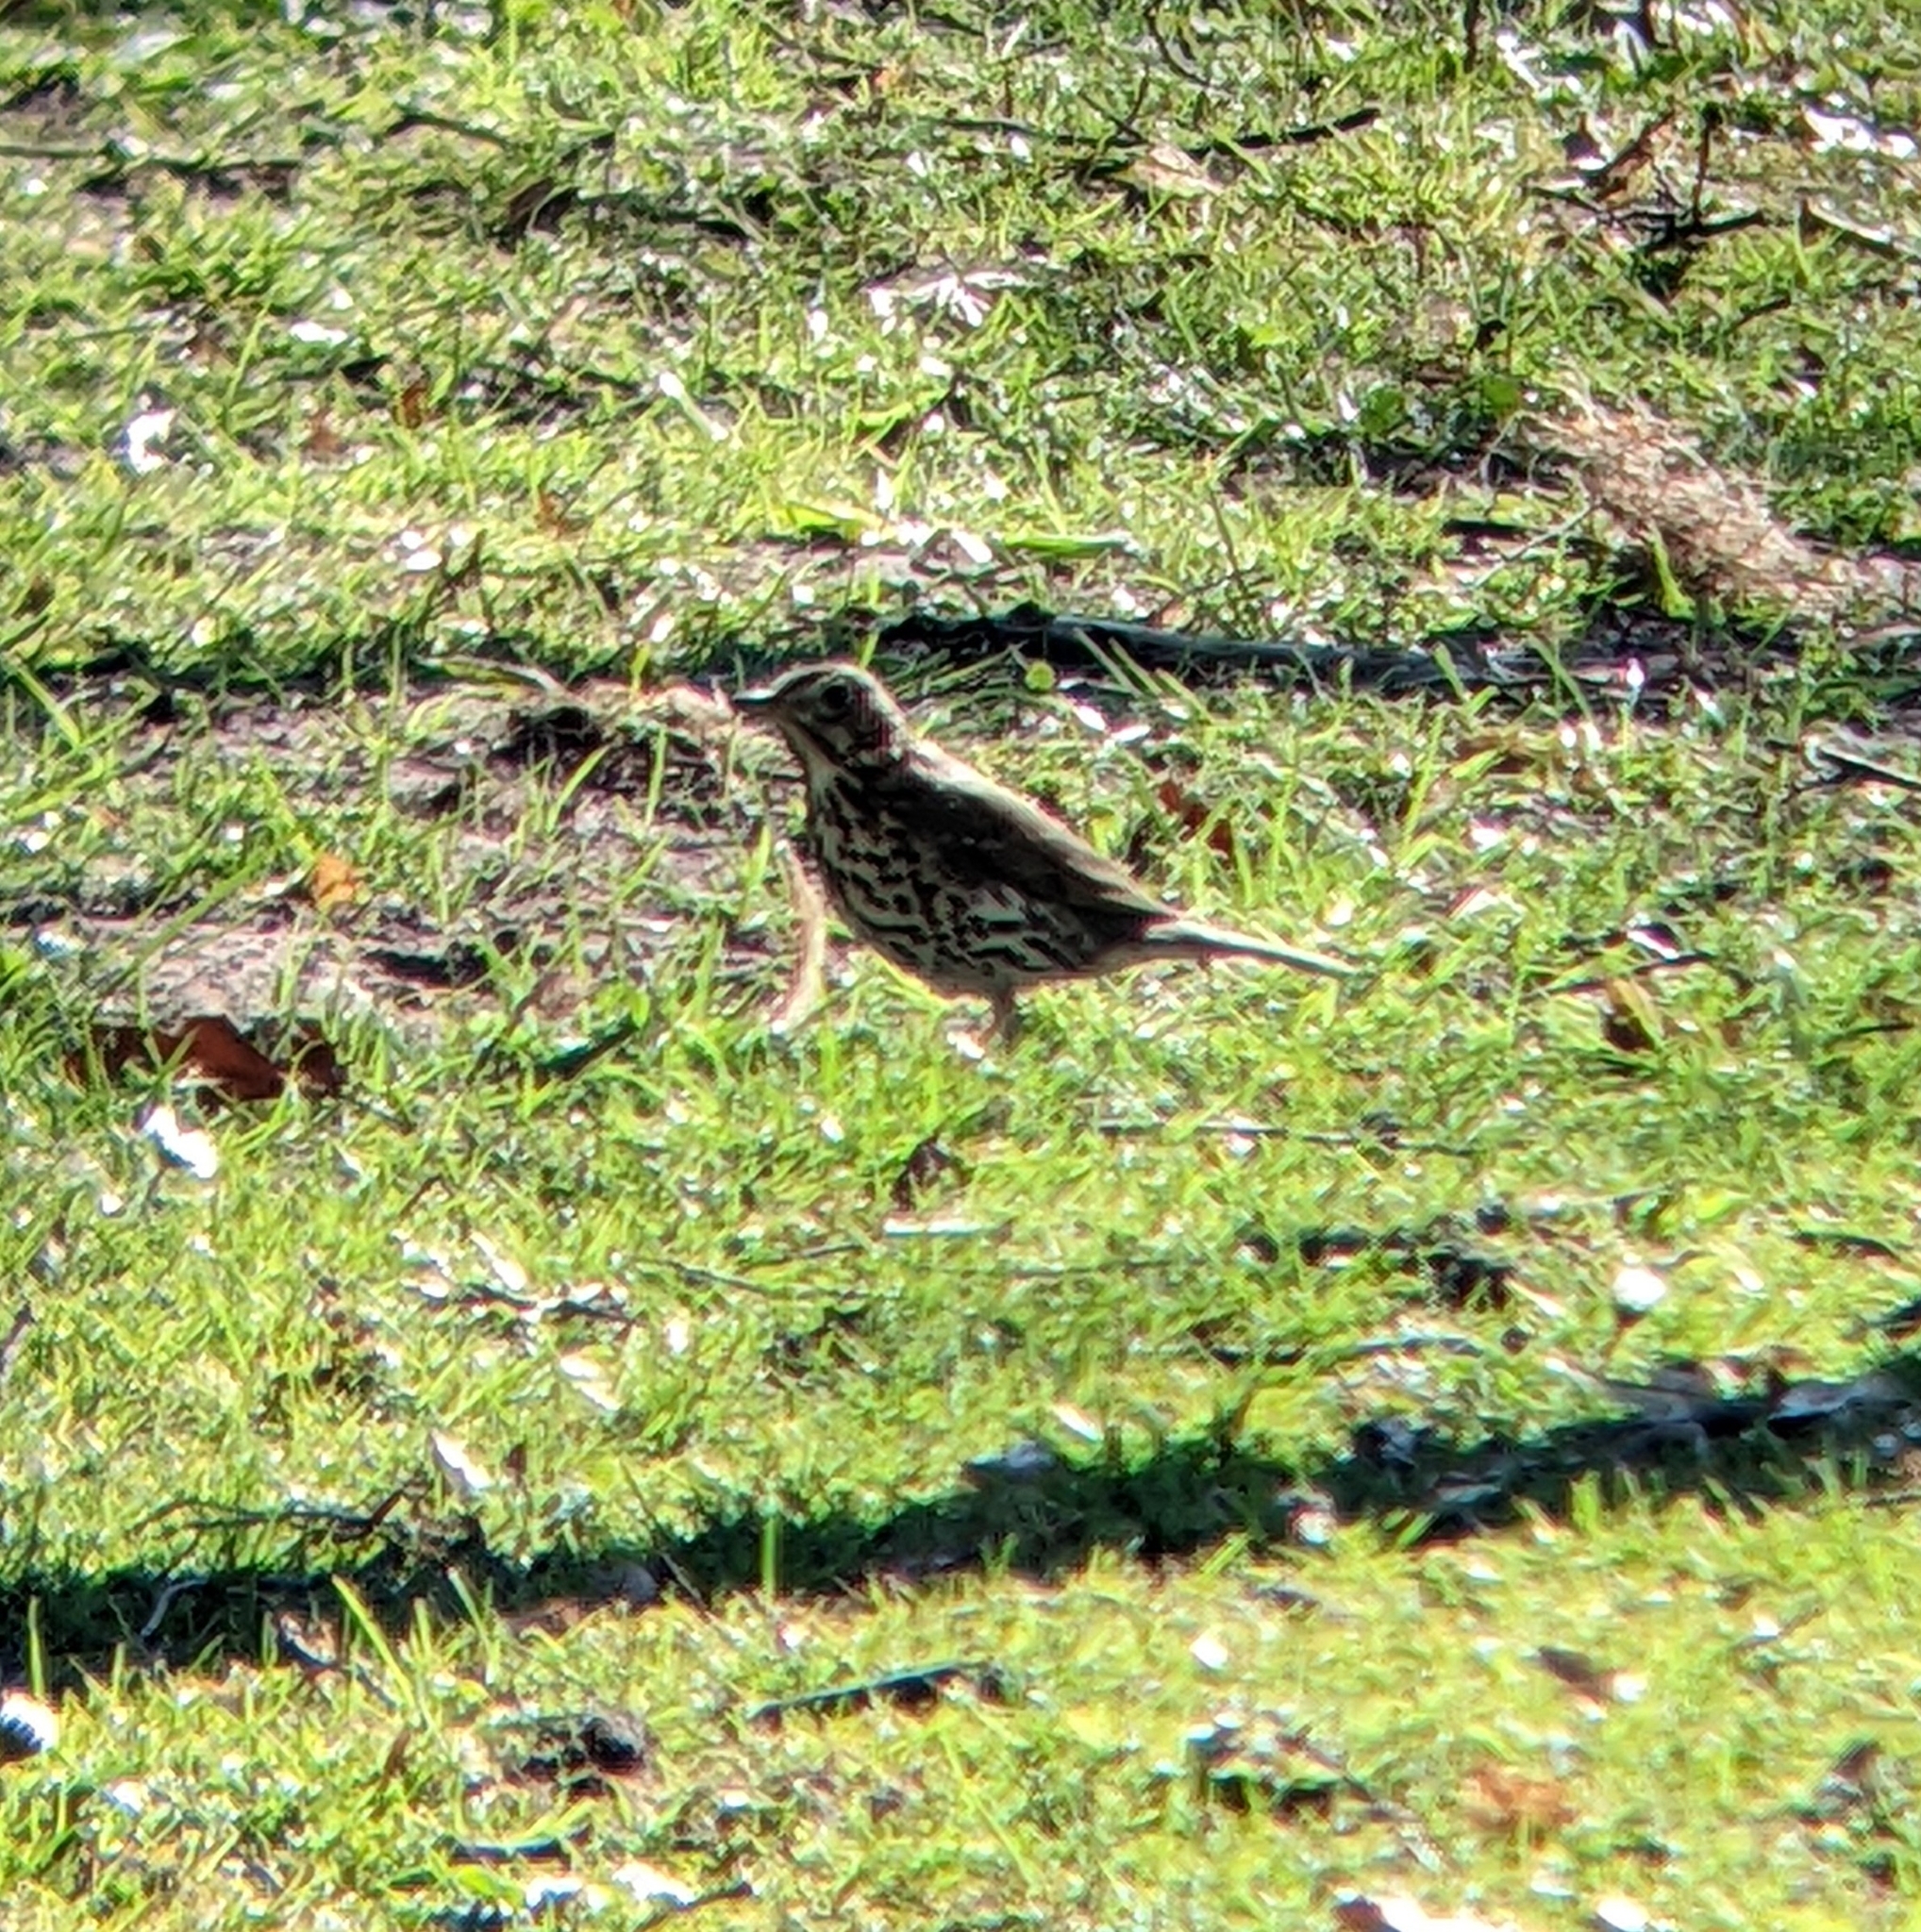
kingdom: Animalia
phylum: Chordata
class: Aves
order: Passeriformes
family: Turdidae
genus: Turdus
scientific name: Turdus philomelos
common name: Song thrush
